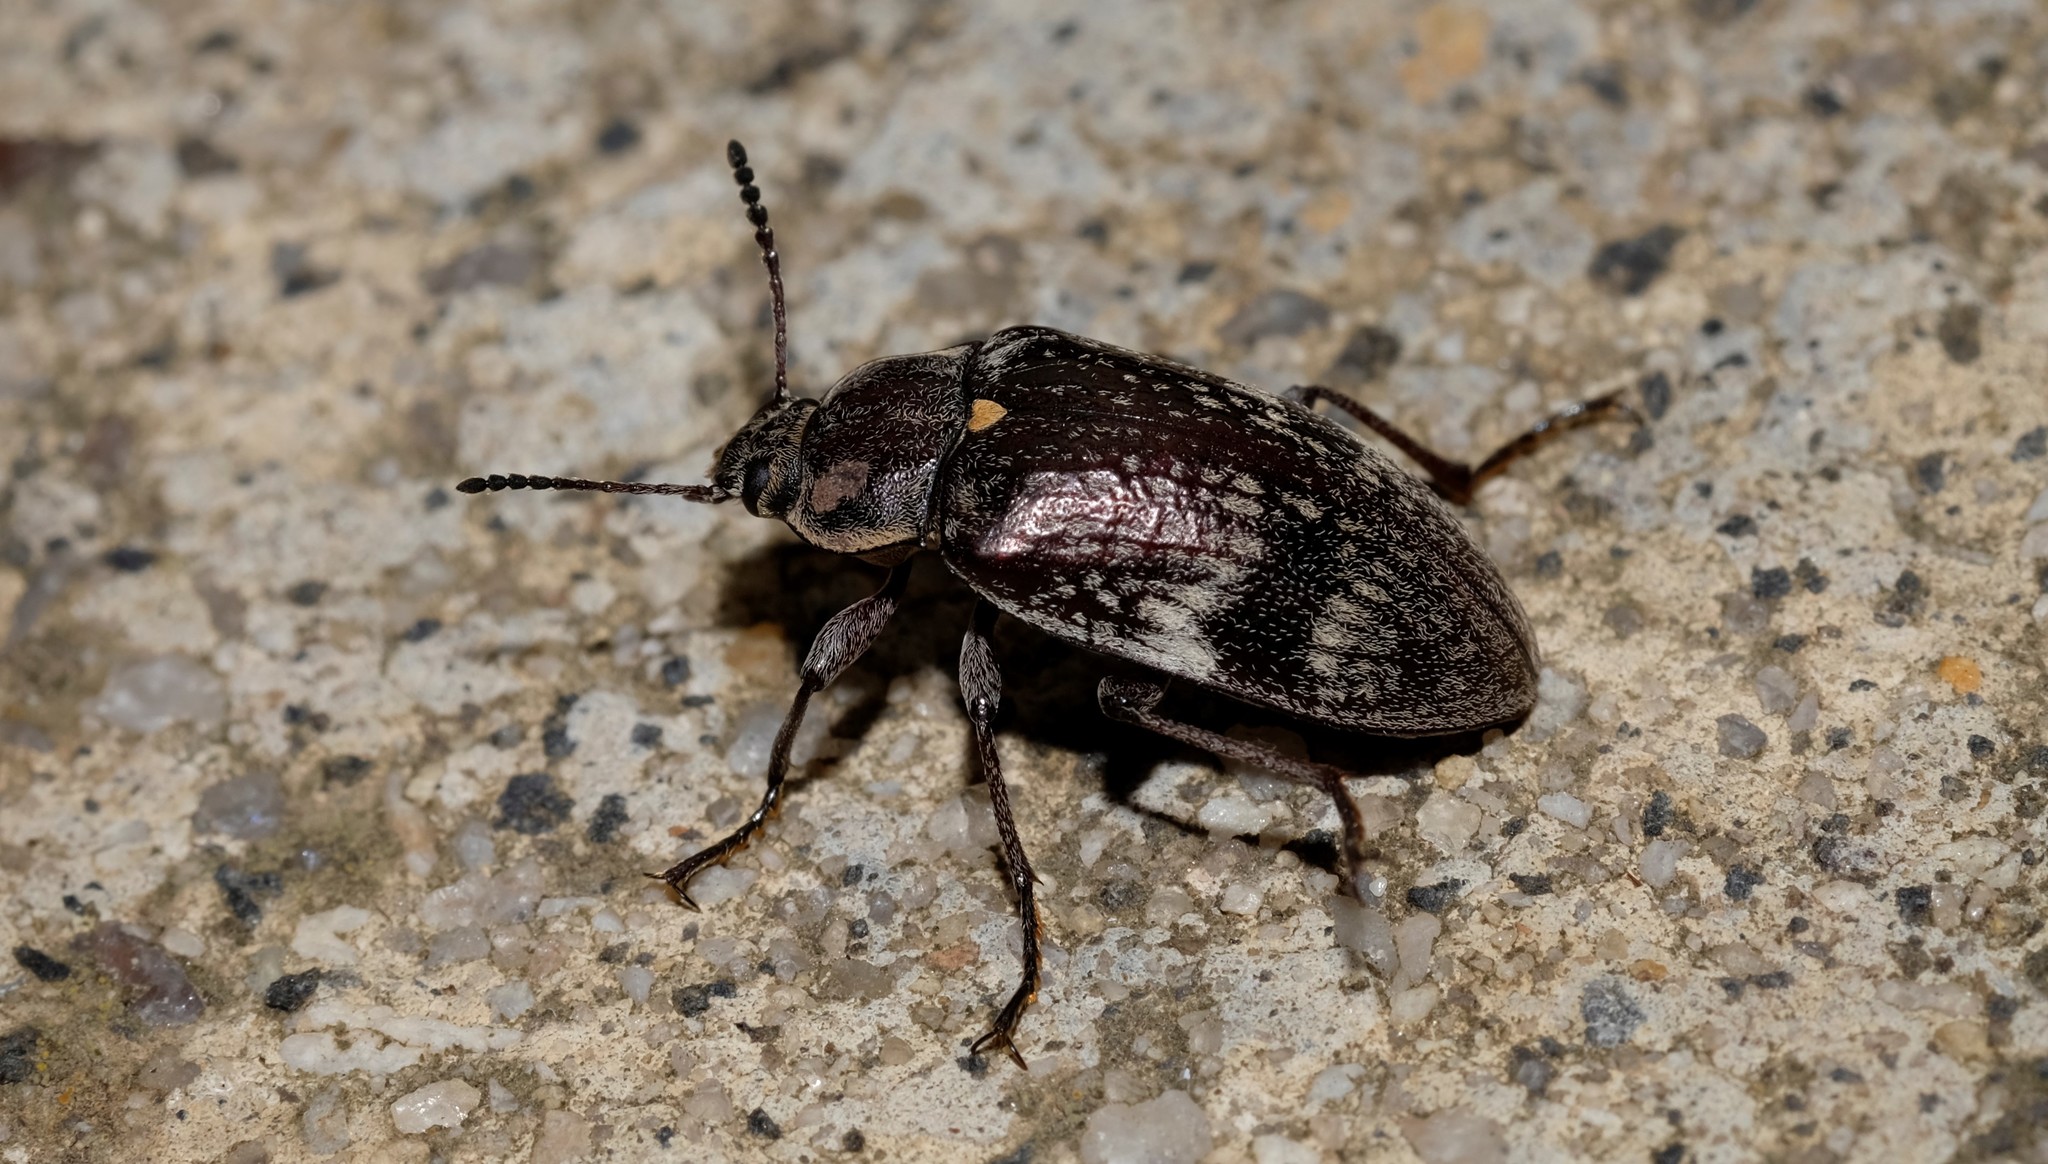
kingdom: Animalia
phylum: Arthropoda
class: Insecta
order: Coleoptera
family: Tenebrionidae
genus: Pachycoelia
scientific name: Pachycoelia
